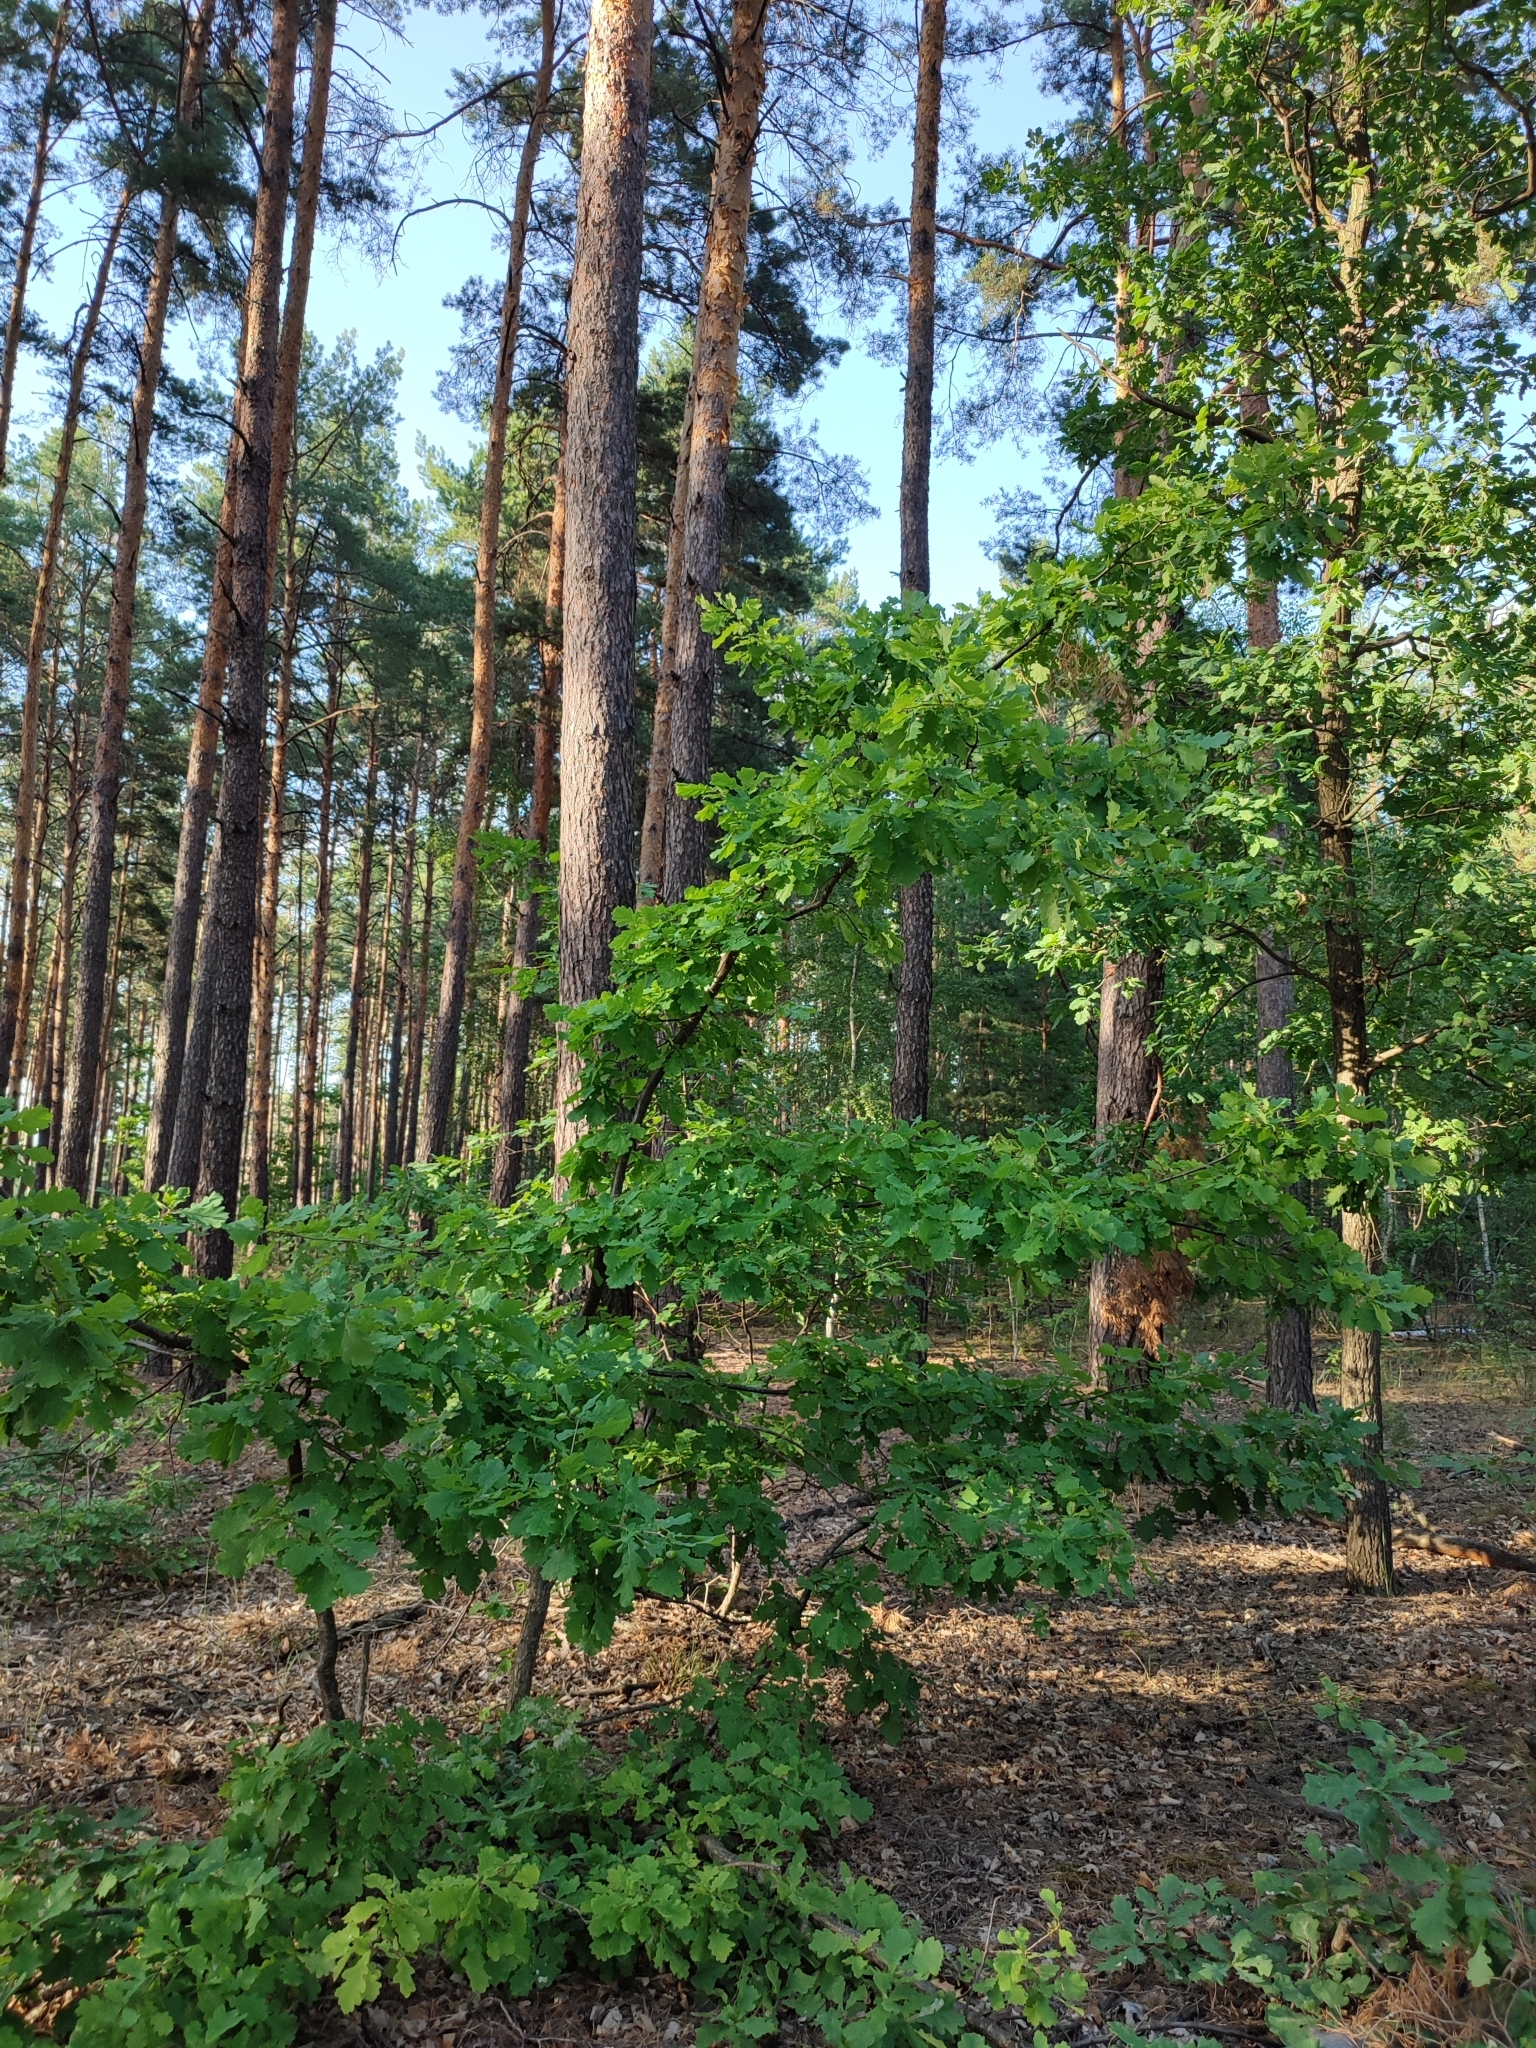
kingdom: Plantae
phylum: Tracheophyta
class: Magnoliopsida
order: Fagales
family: Fagaceae
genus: Quercus
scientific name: Quercus robur
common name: Pedunculate oak
